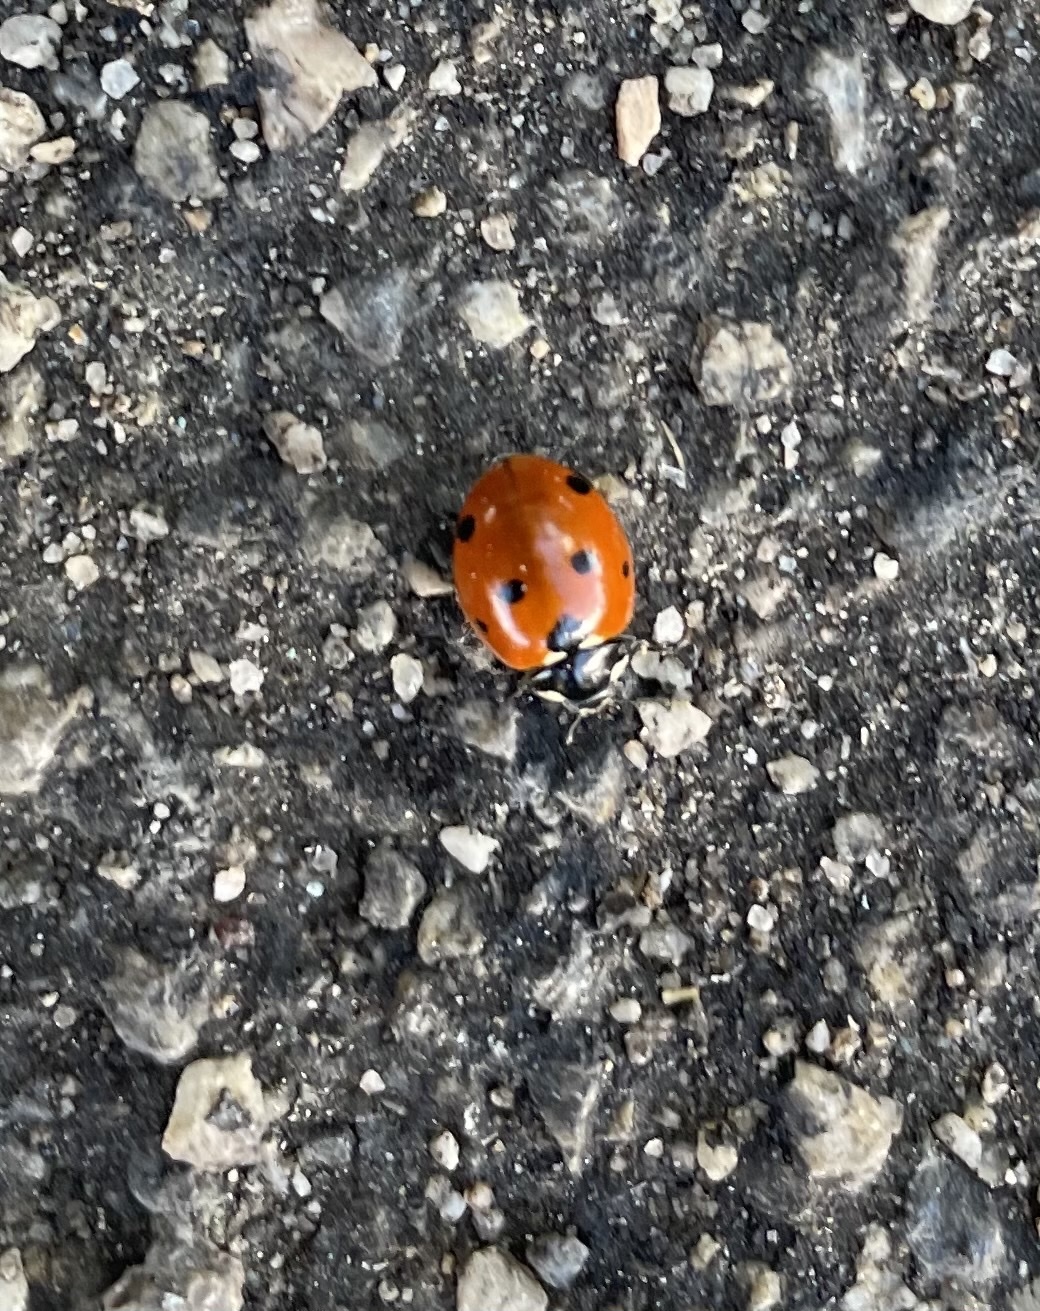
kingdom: Animalia
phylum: Arthropoda
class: Insecta
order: Coleoptera
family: Coccinellidae
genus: Coccinella
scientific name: Coccinella septempunctata
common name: Sevenspotted lady beetle
